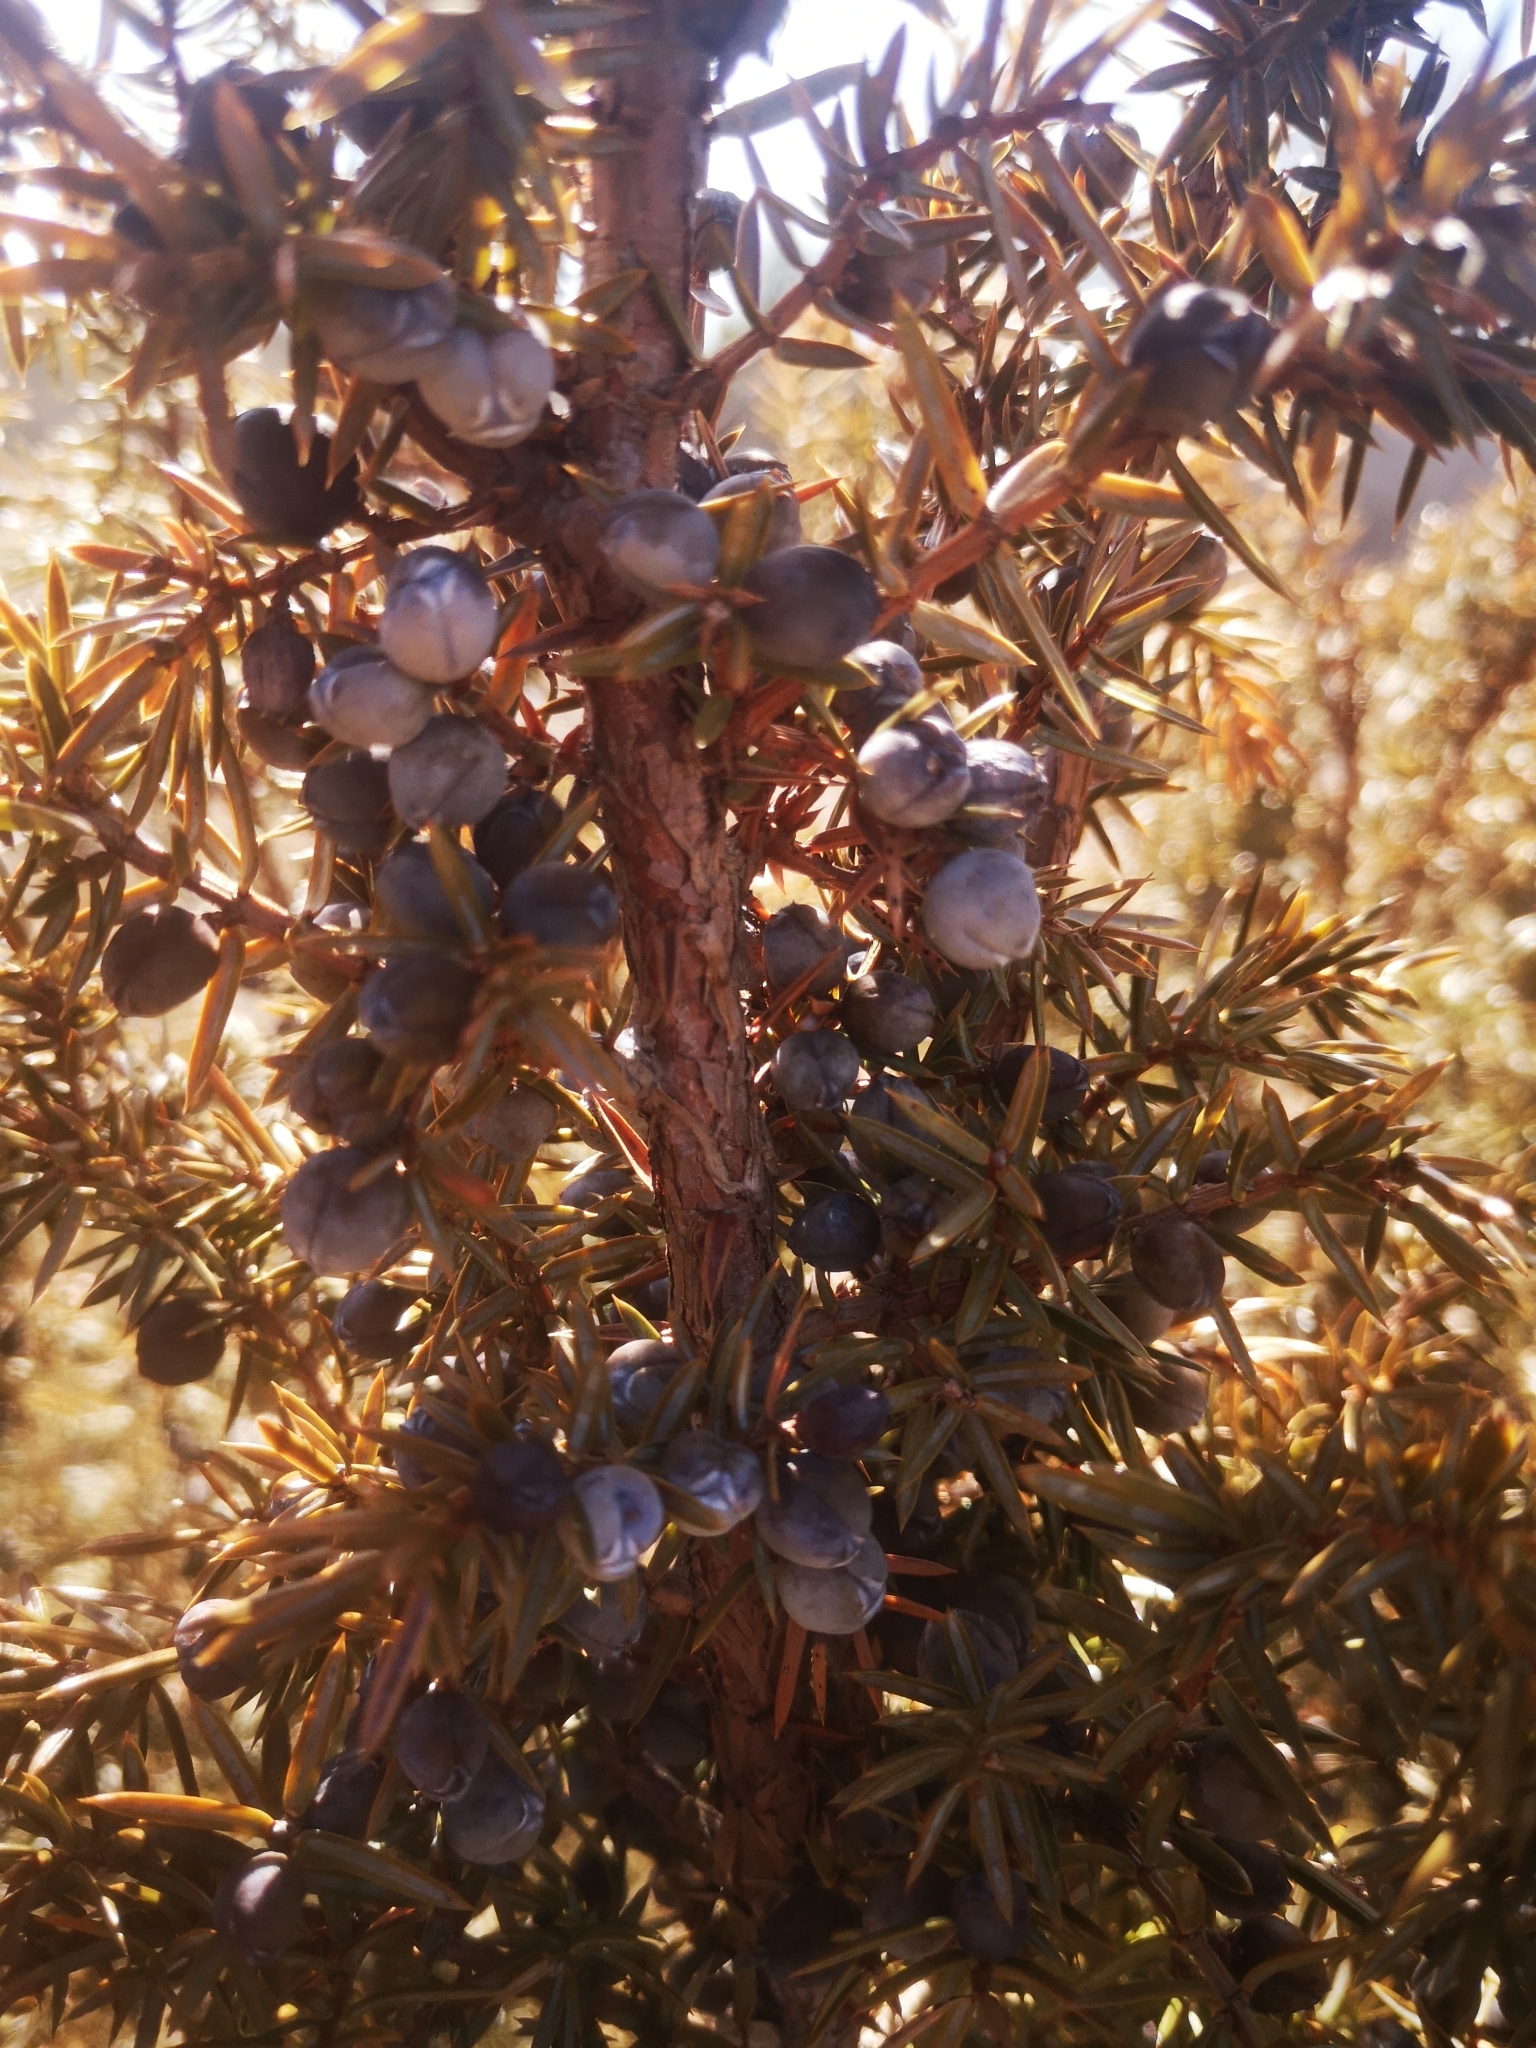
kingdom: Plantae
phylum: Tracheophyta
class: Pinopsida
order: Pinales
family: Cupressaceae
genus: Juniperus
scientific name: Juniperus communis
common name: Common juniper
